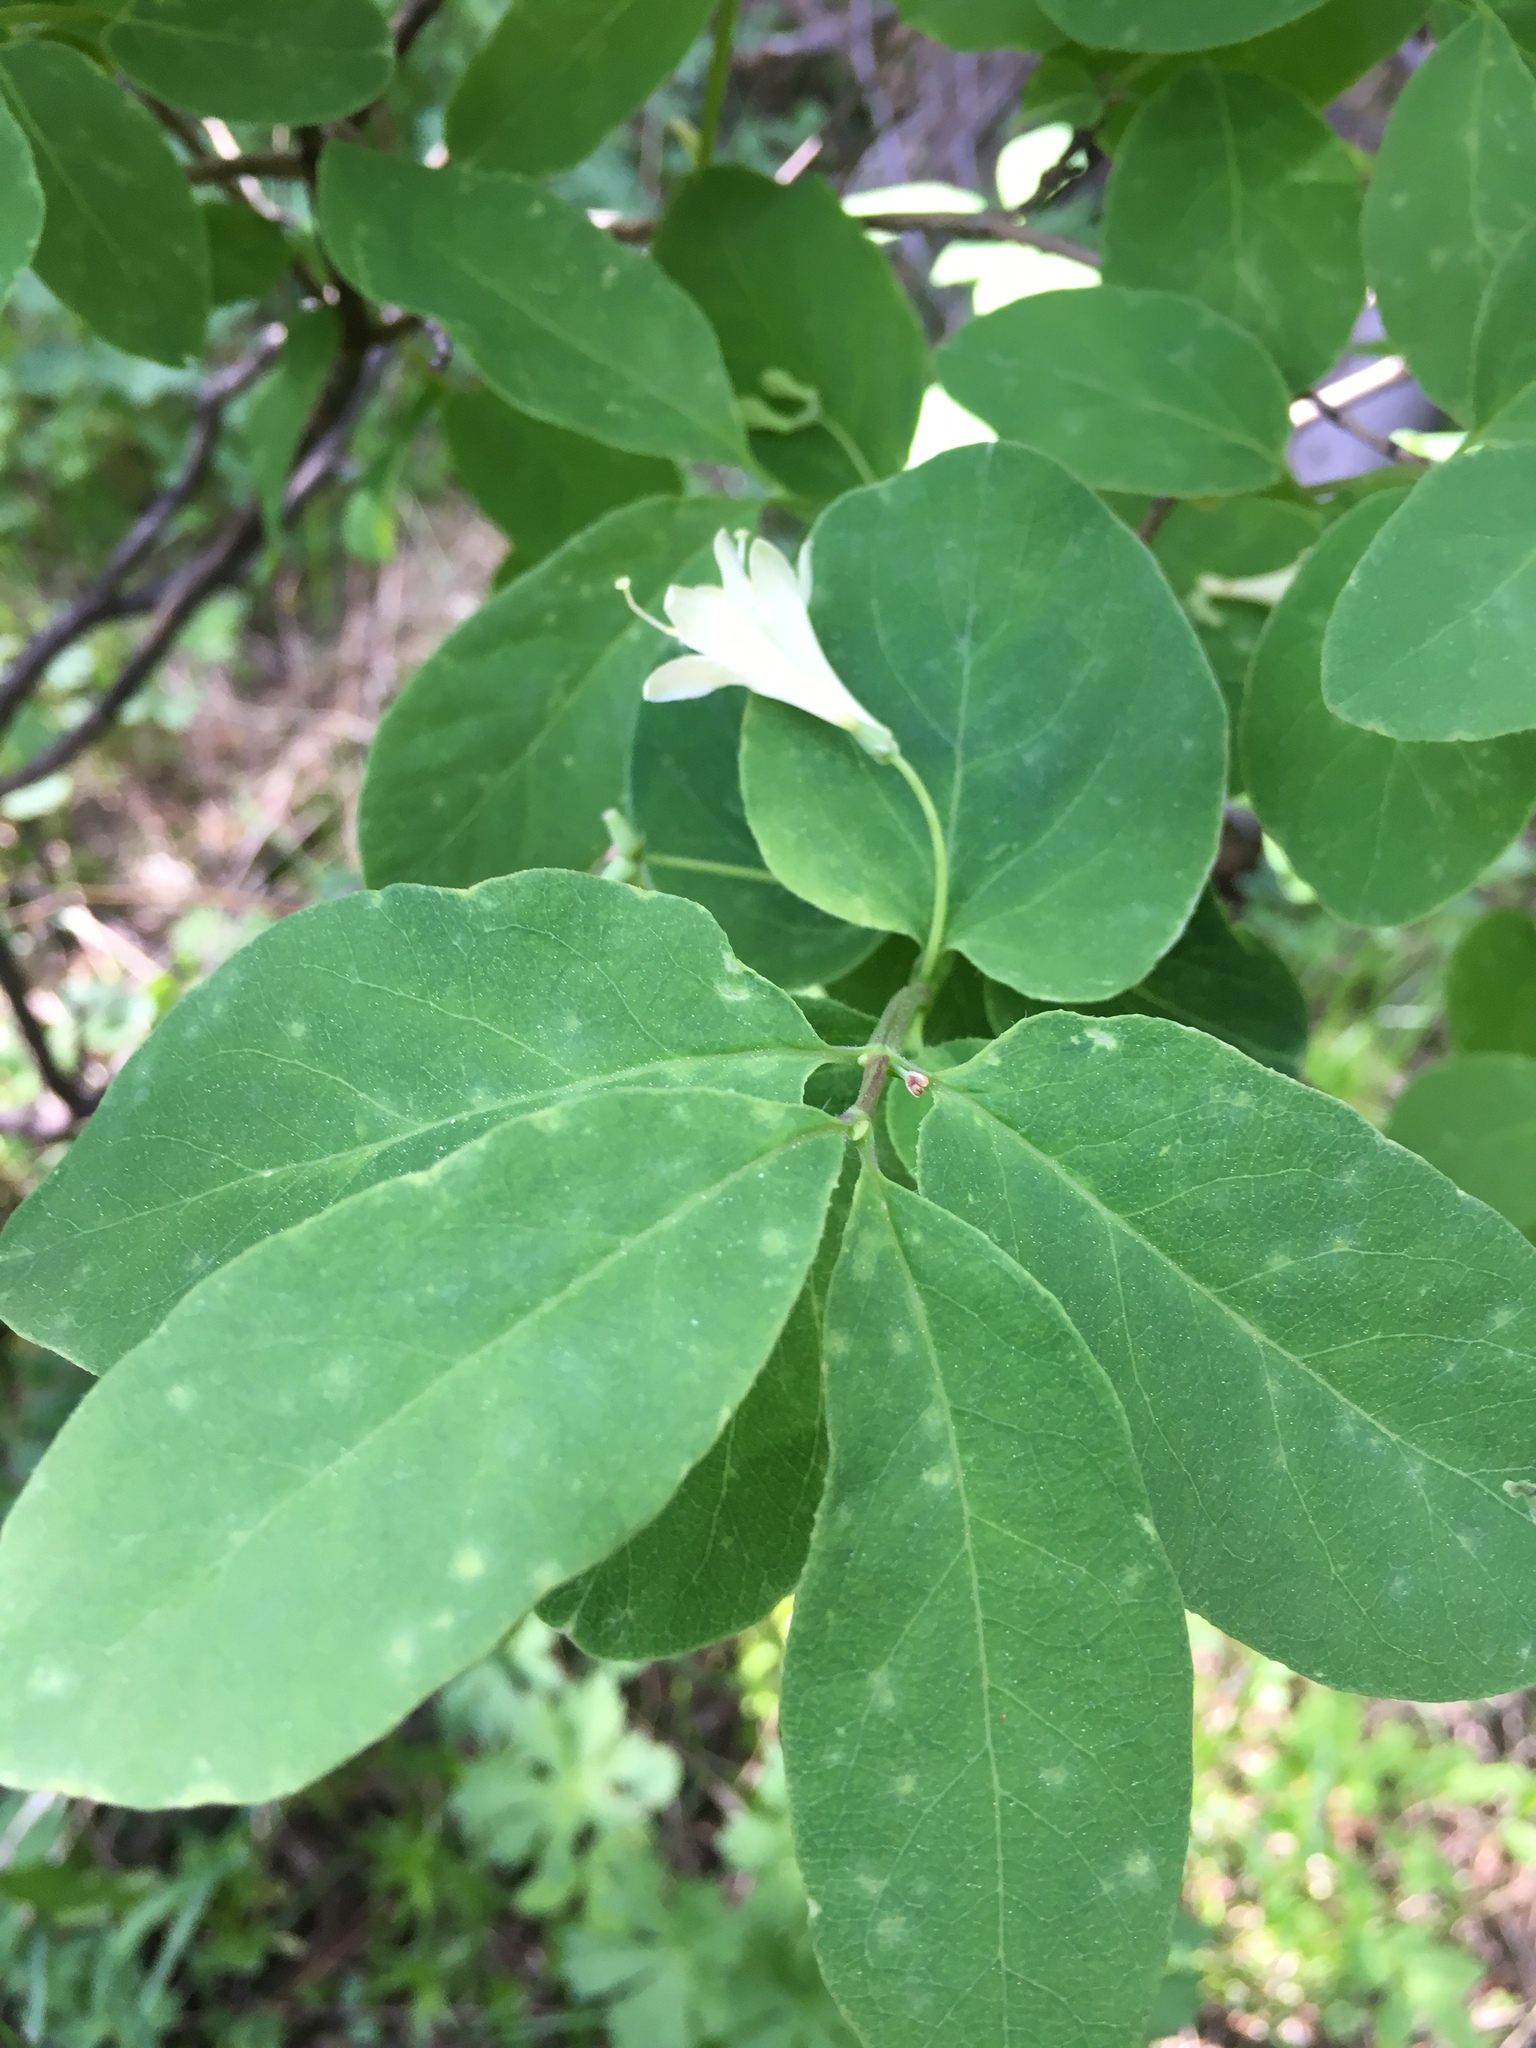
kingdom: Plantae
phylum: Tracheophyta
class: Magnoliopsida
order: Dipsacales
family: Caprifoliaceae
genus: Lonicera
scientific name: Lonicera utahensis
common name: Utah honeysuckle
